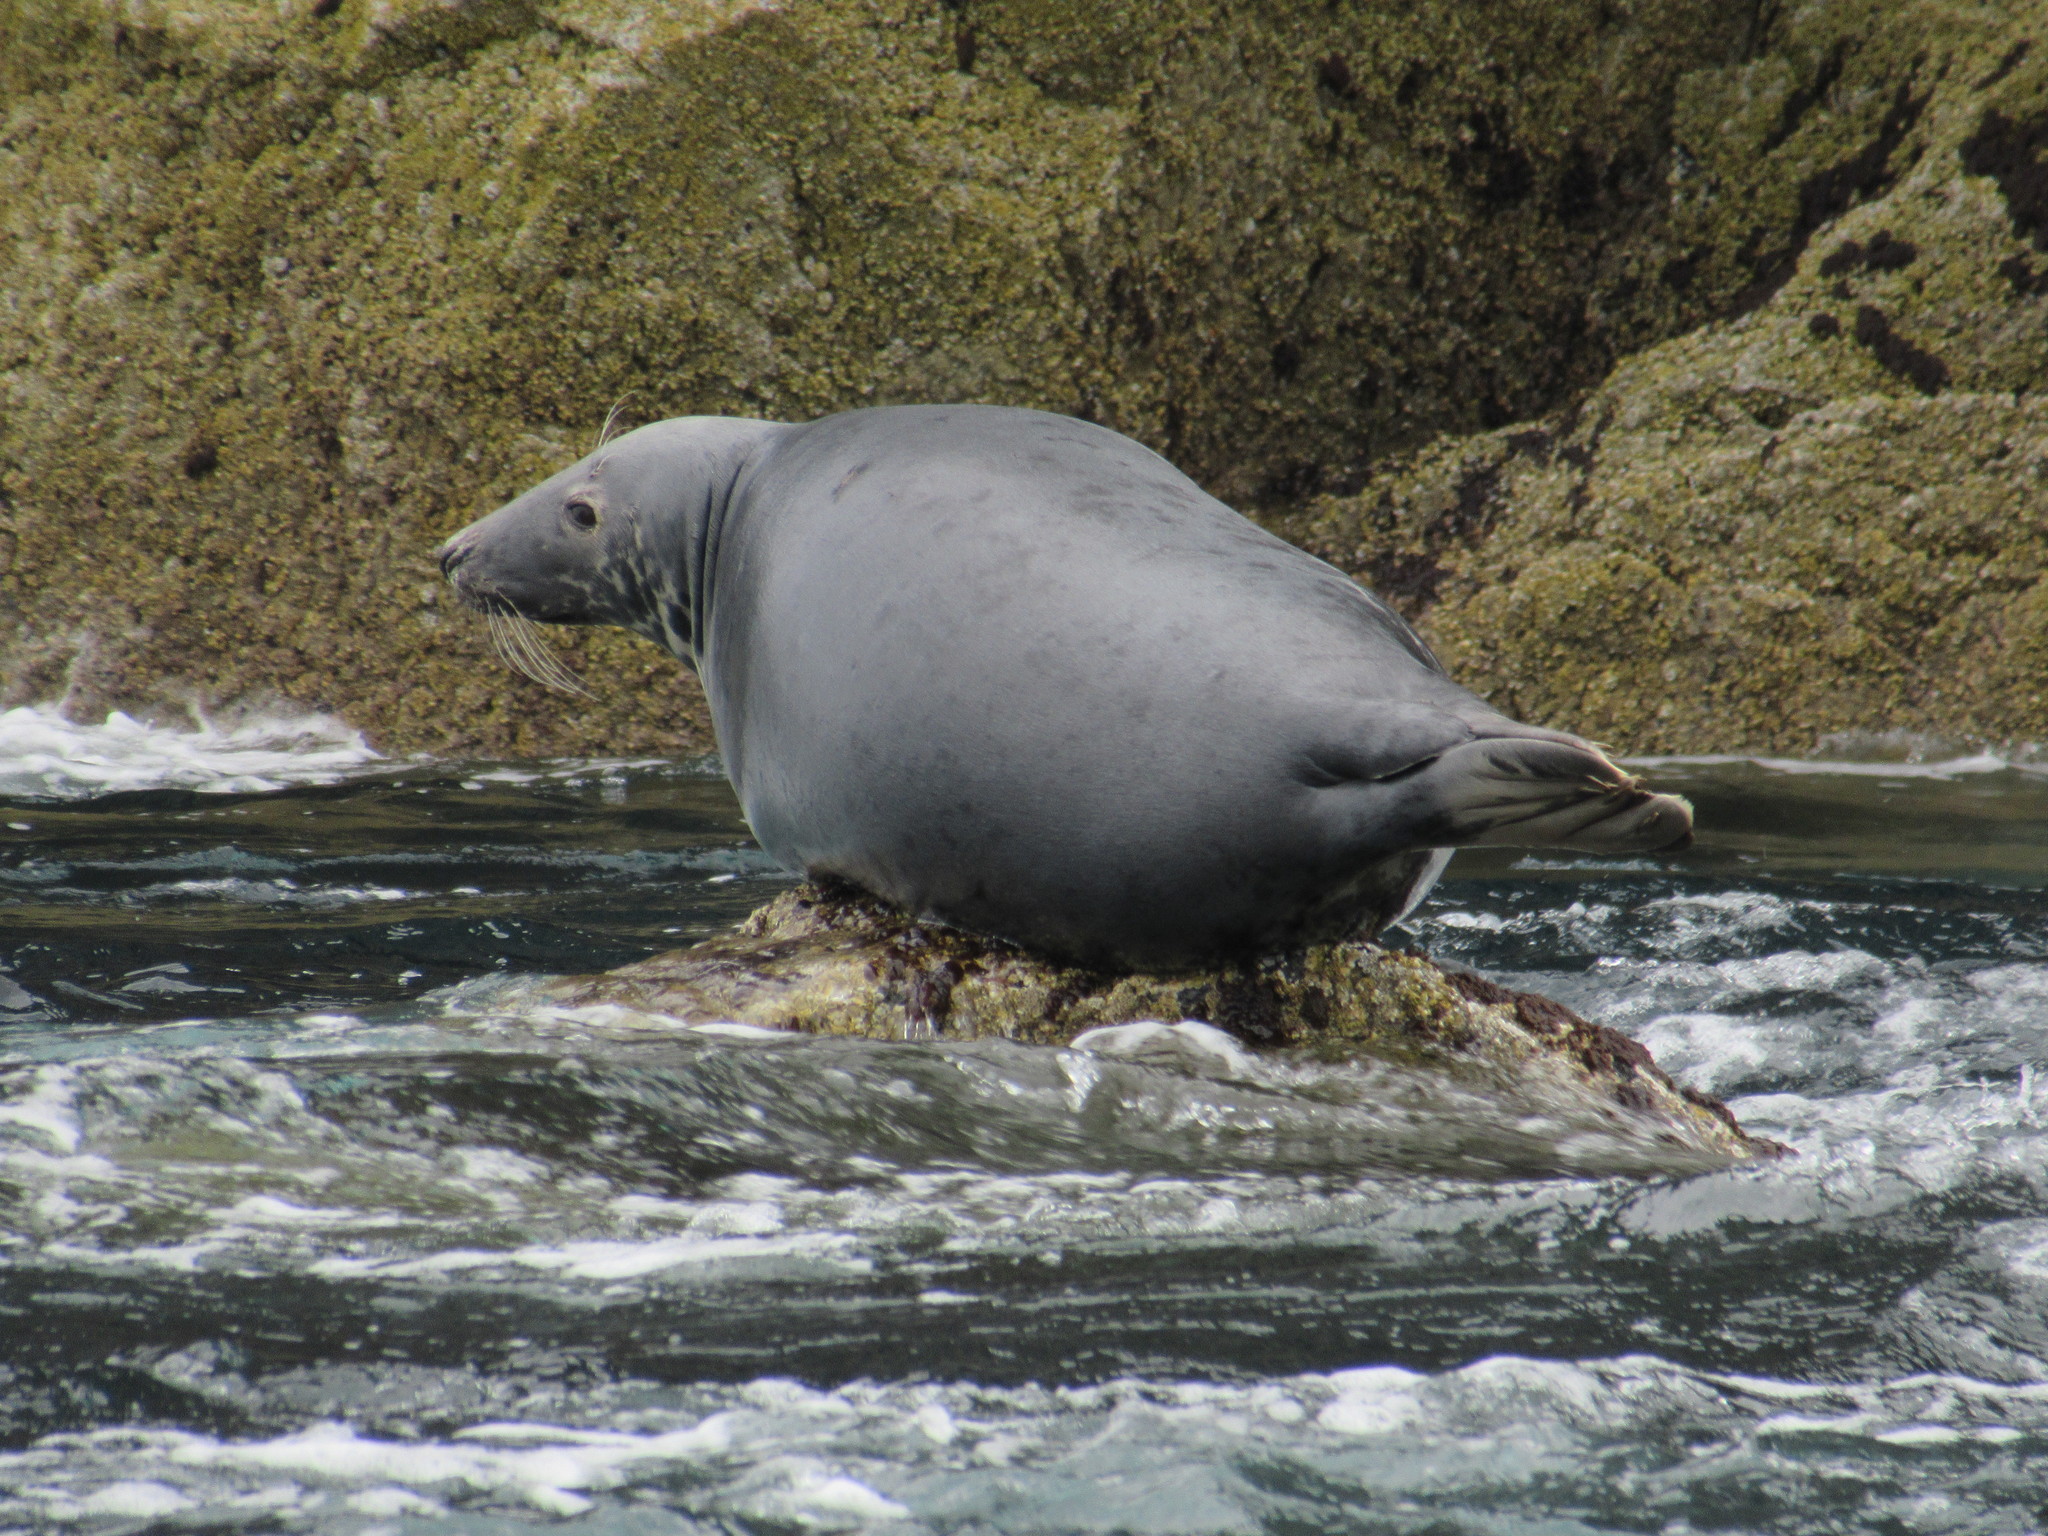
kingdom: Animalia
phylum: Chordata
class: Mammalia
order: Carnivora
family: Phocidae
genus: Halichoerus
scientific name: Halichoerus grypus
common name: Grey seal
